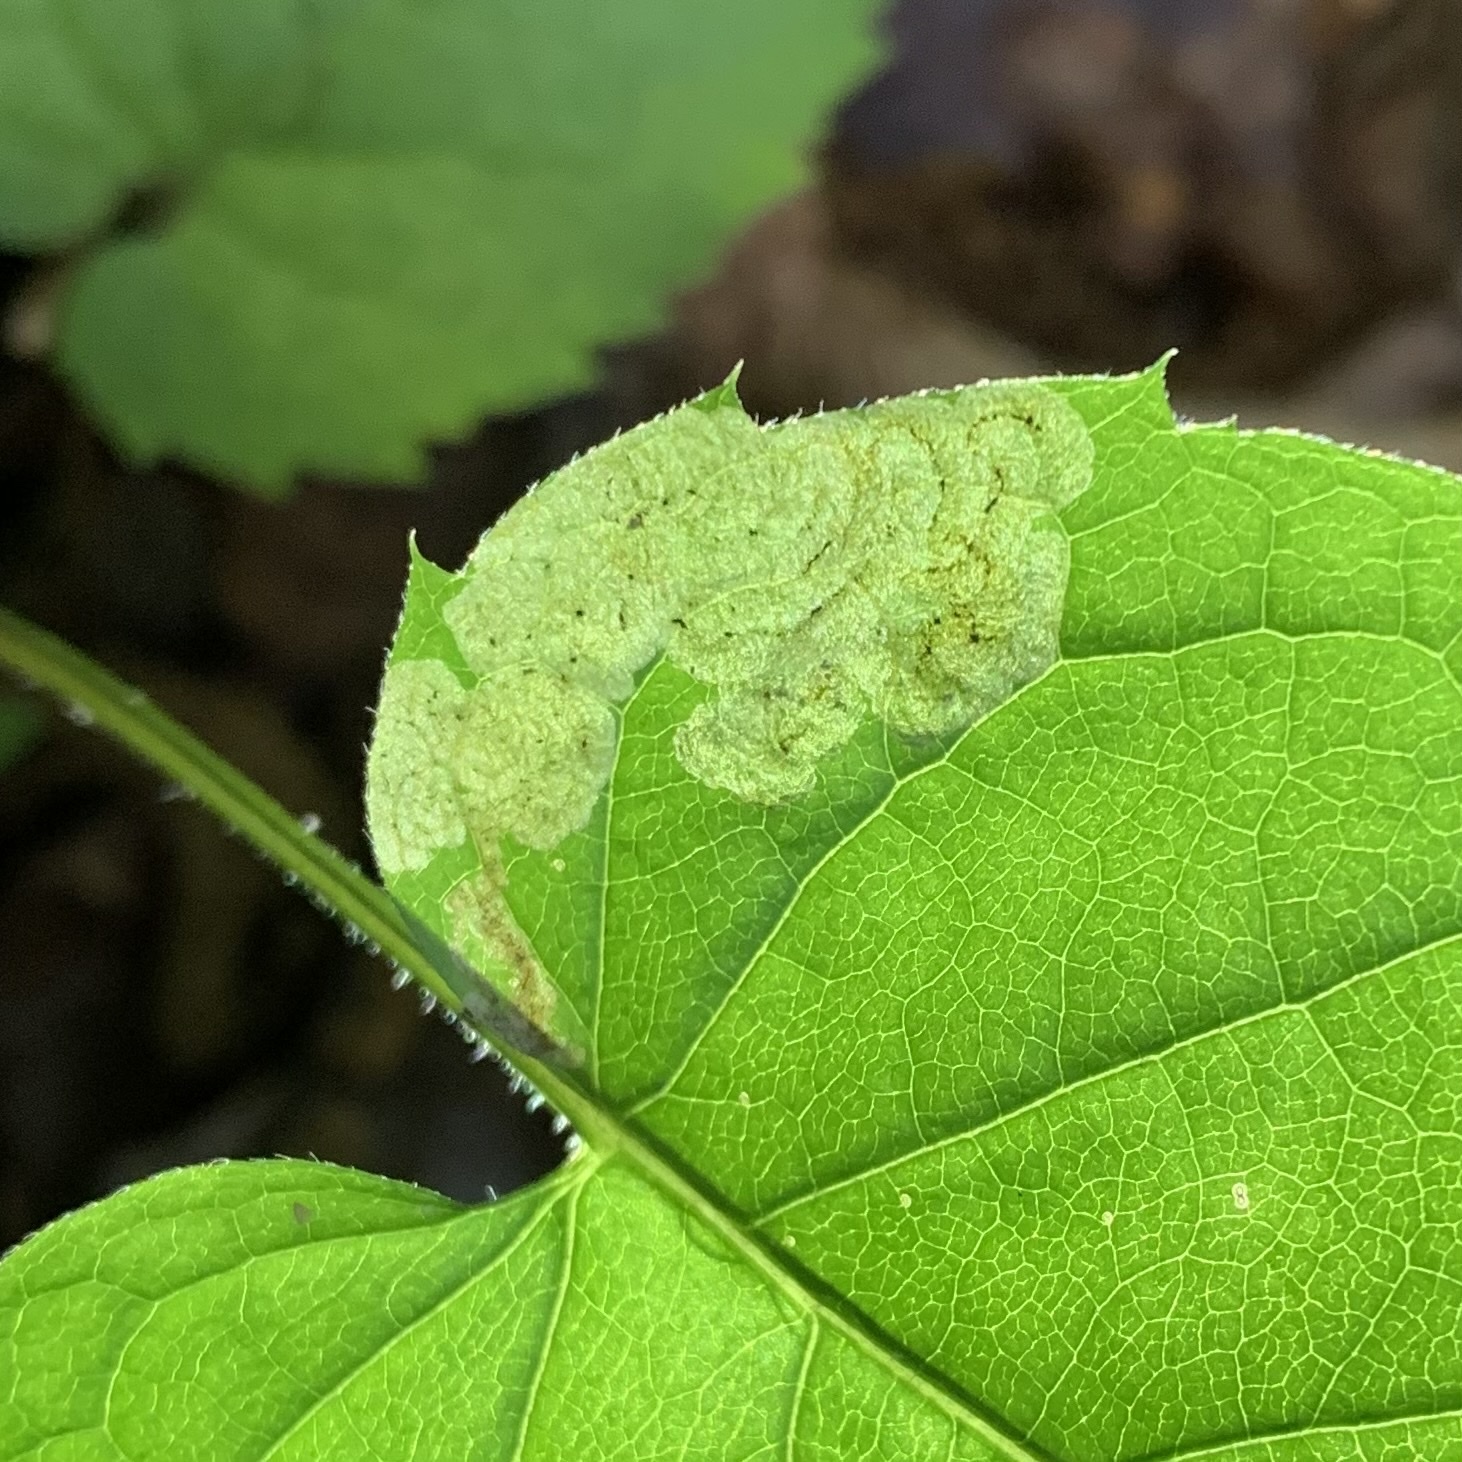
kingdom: Animalia
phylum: Arthropoda
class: Insecta
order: Diptera
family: Agromyzidae
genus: Liriomyza
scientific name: Liriomyza limopsis
